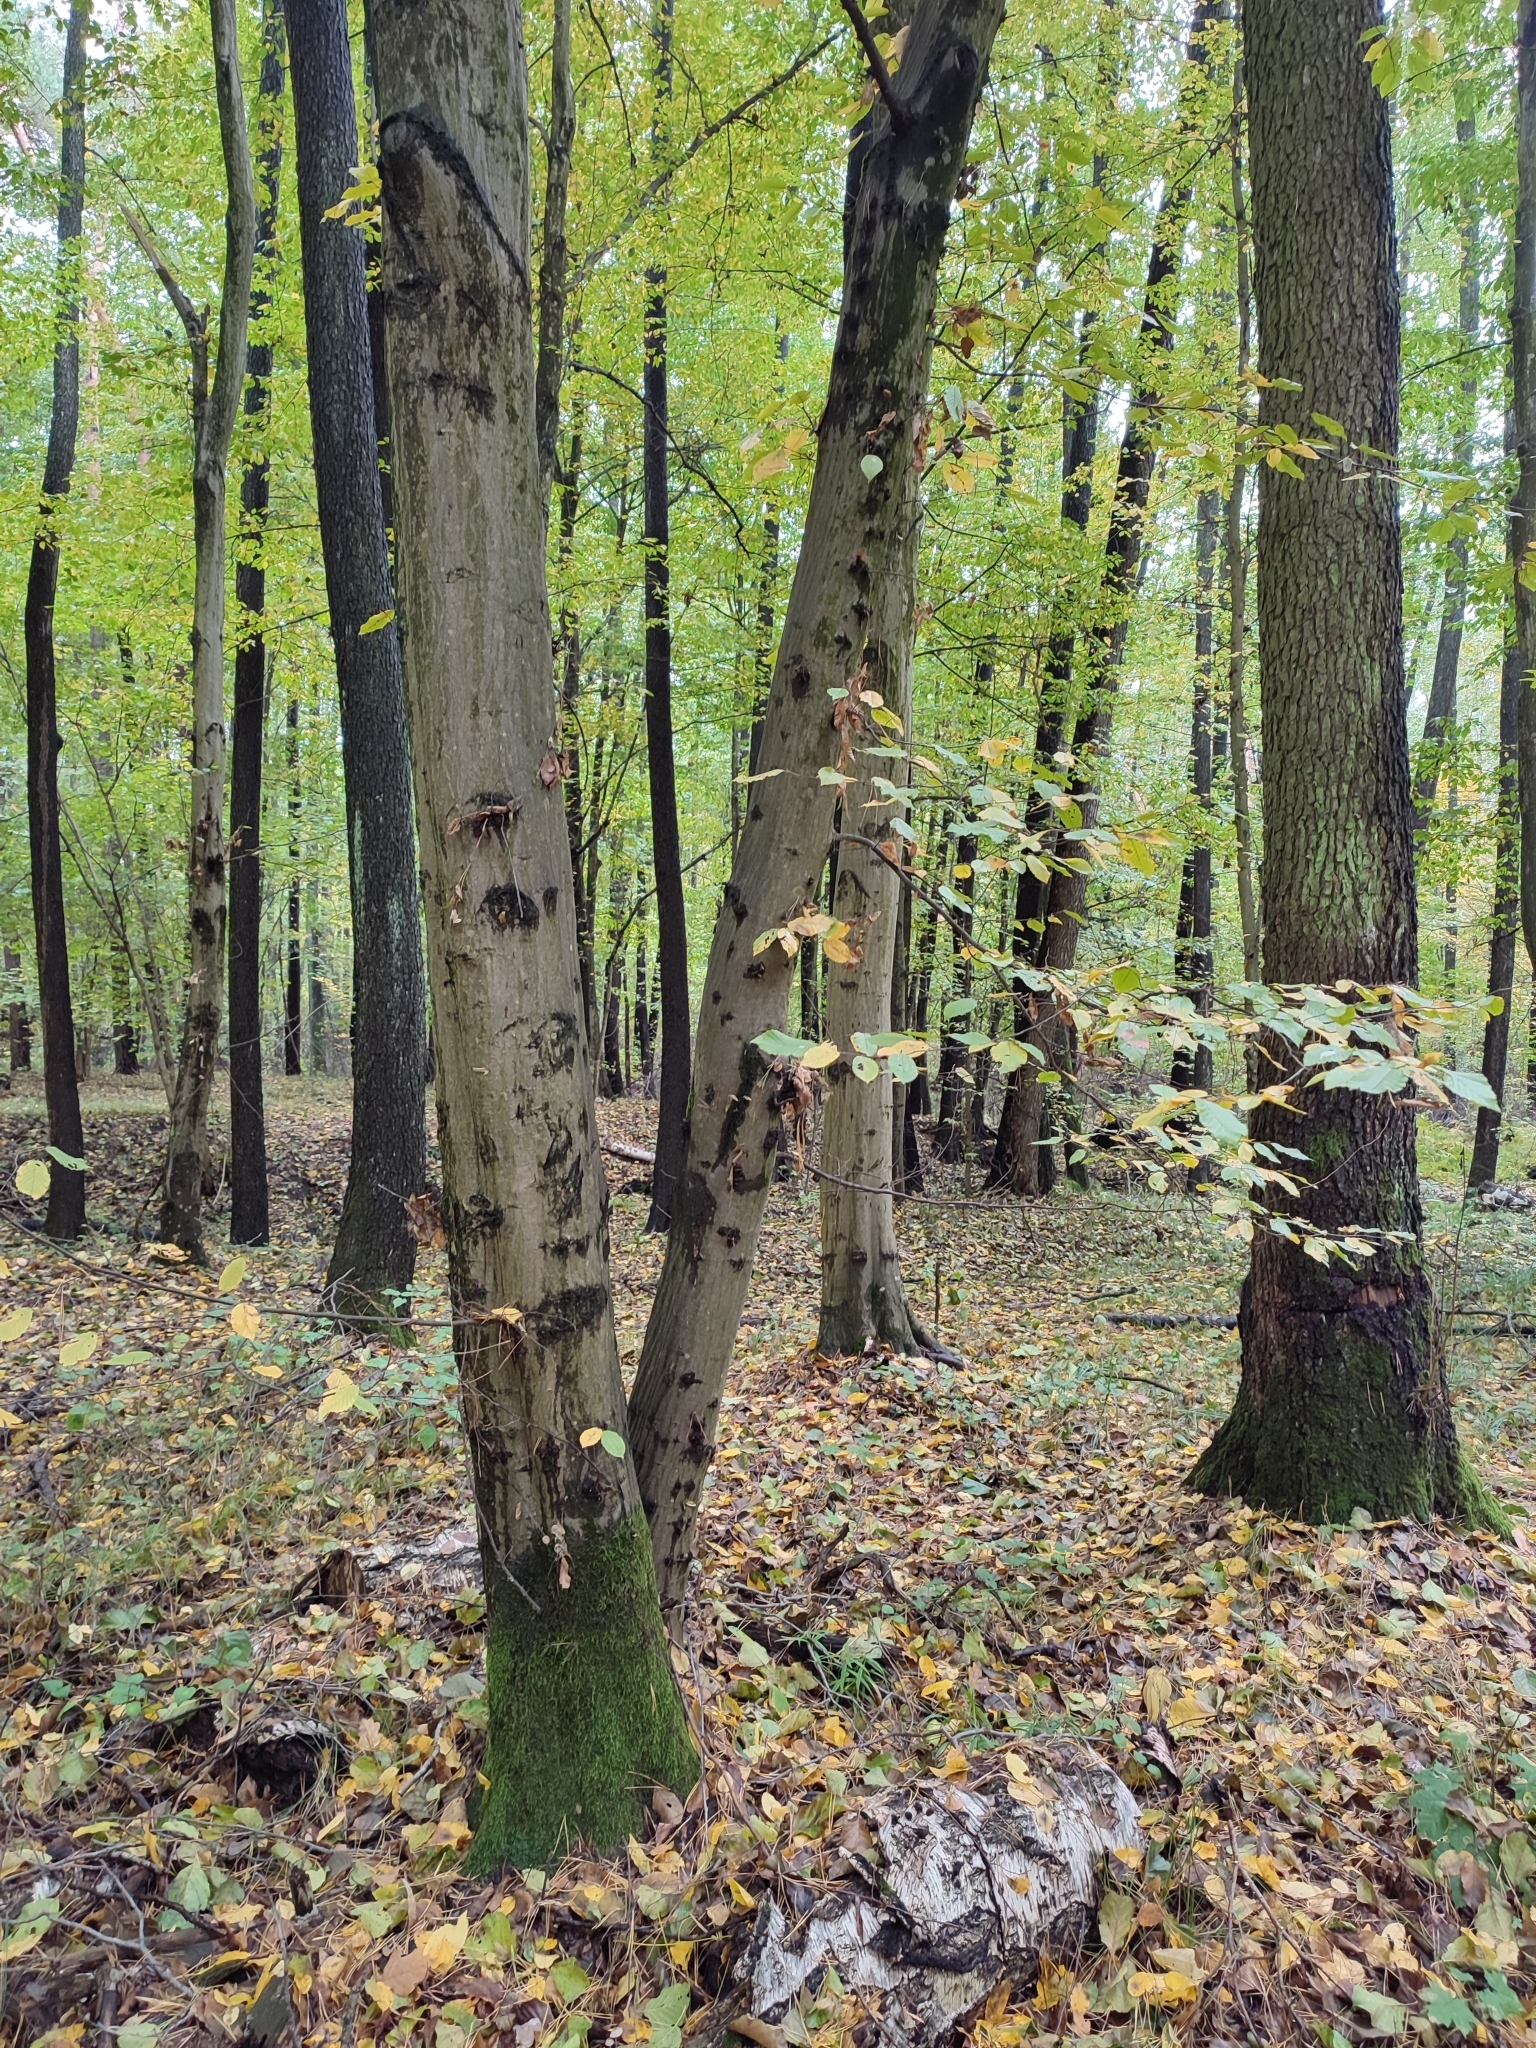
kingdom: Plantae
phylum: Tracheophyta
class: Magnoliopsida
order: Fagales
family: Betulaceae
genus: Carpinus
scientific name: Carpinus betulus
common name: Hornbeam
